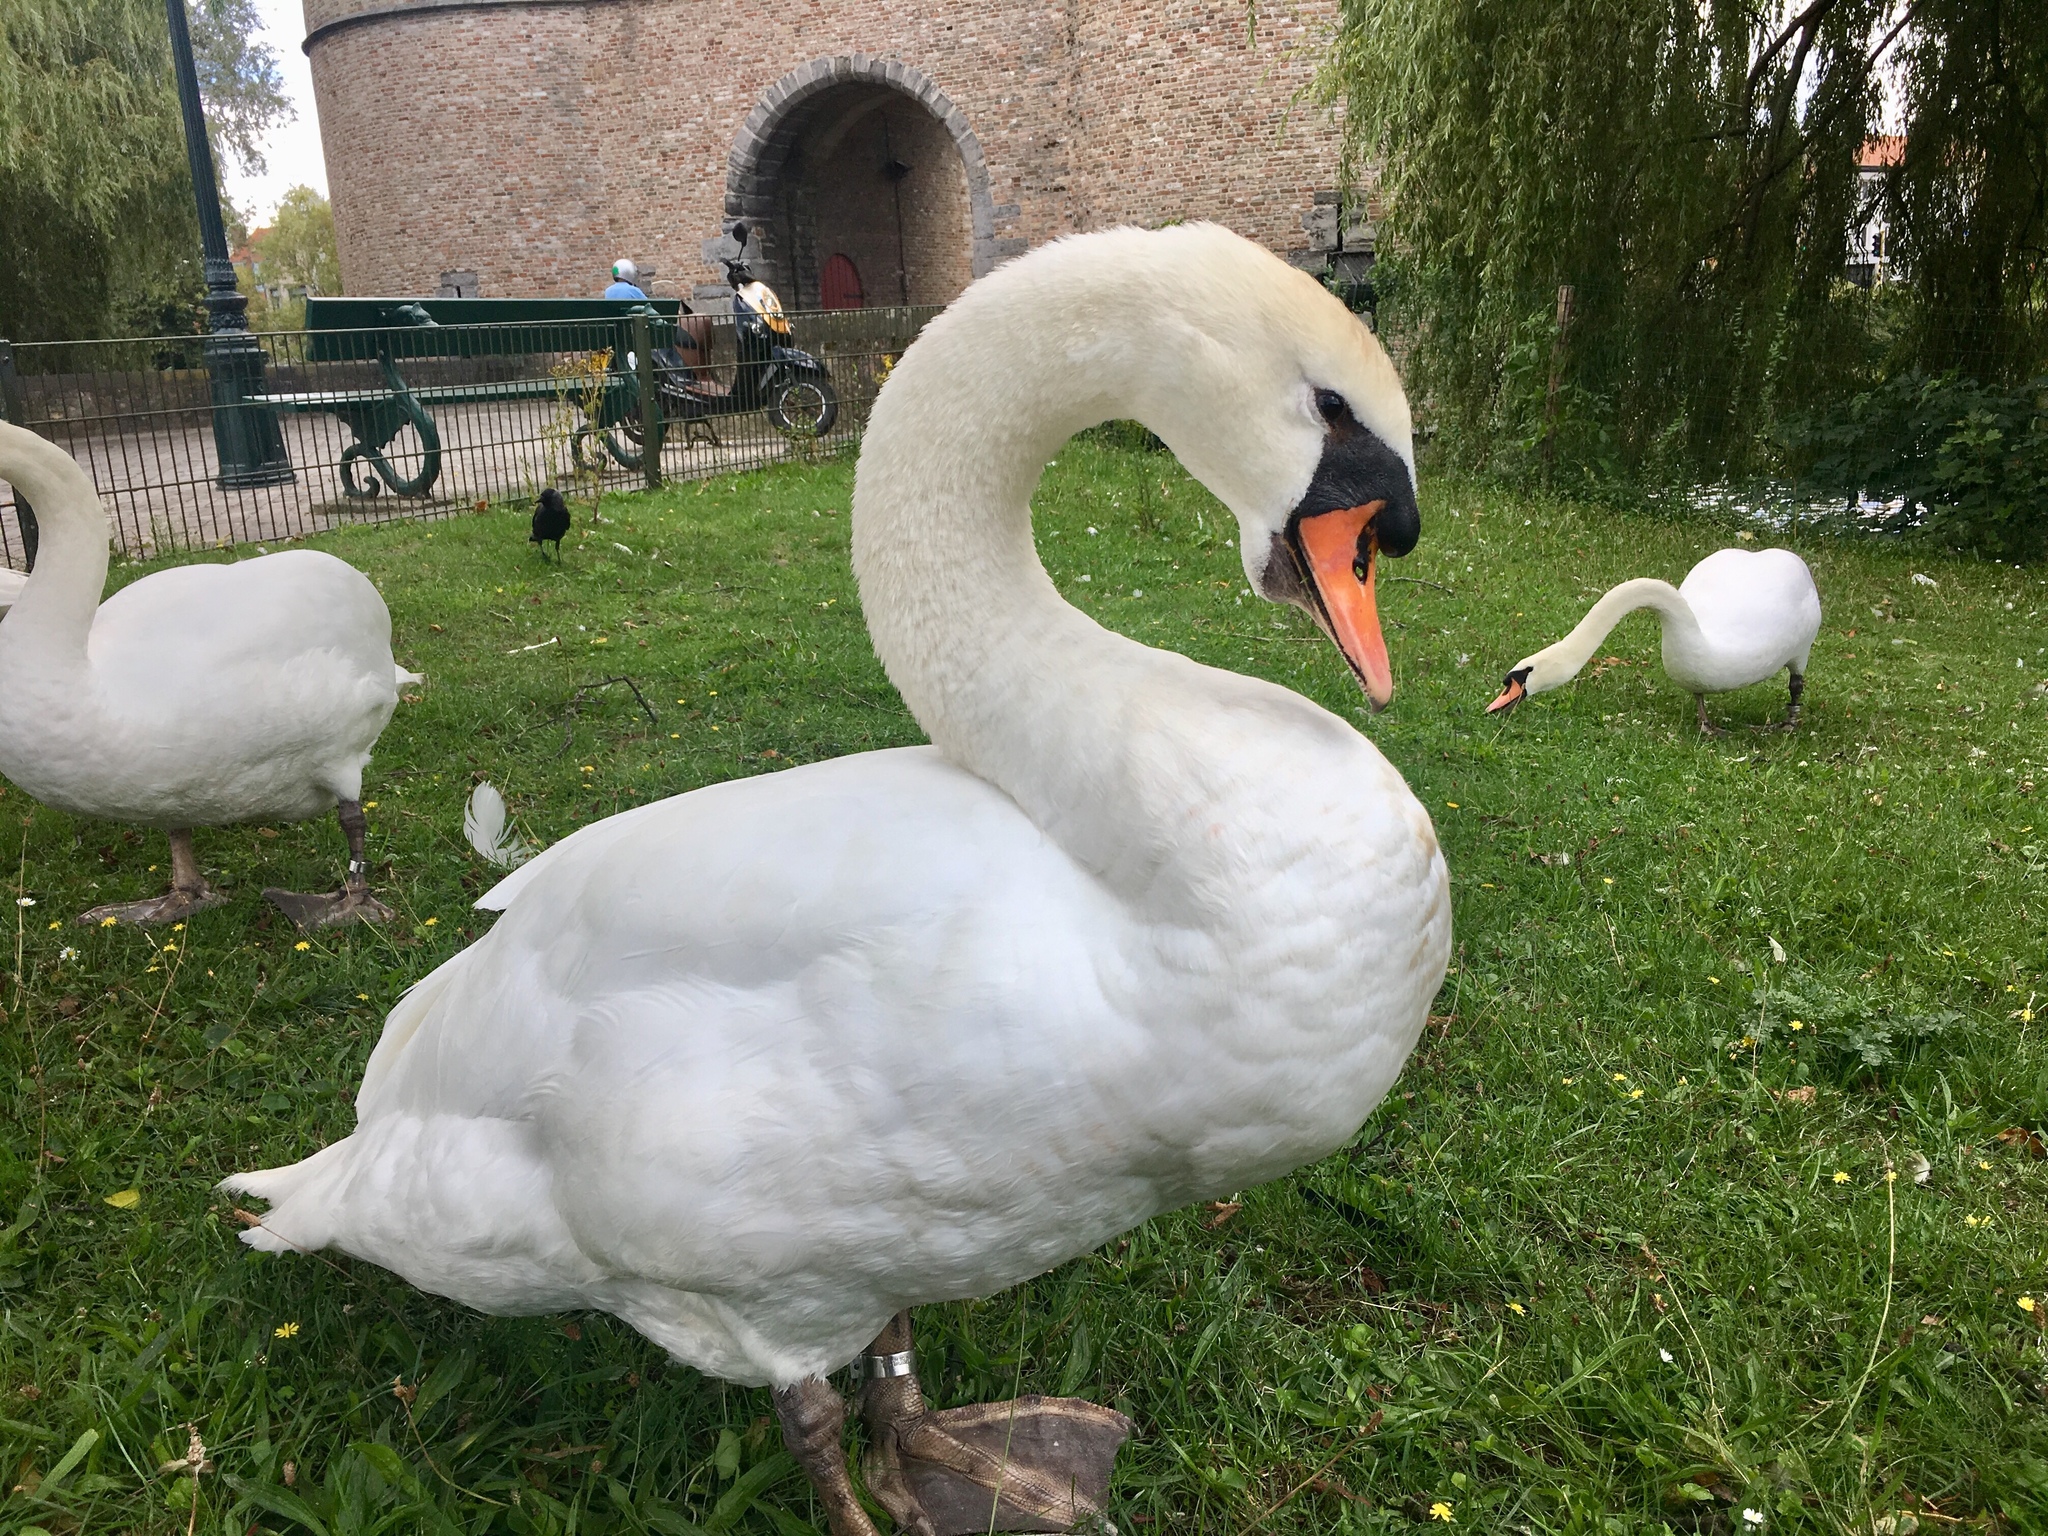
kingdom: Animalia
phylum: Chordata
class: Aves
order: Anseriformes
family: Anatidae
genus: Cygnus
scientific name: Cygnus olor
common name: Mute swan
